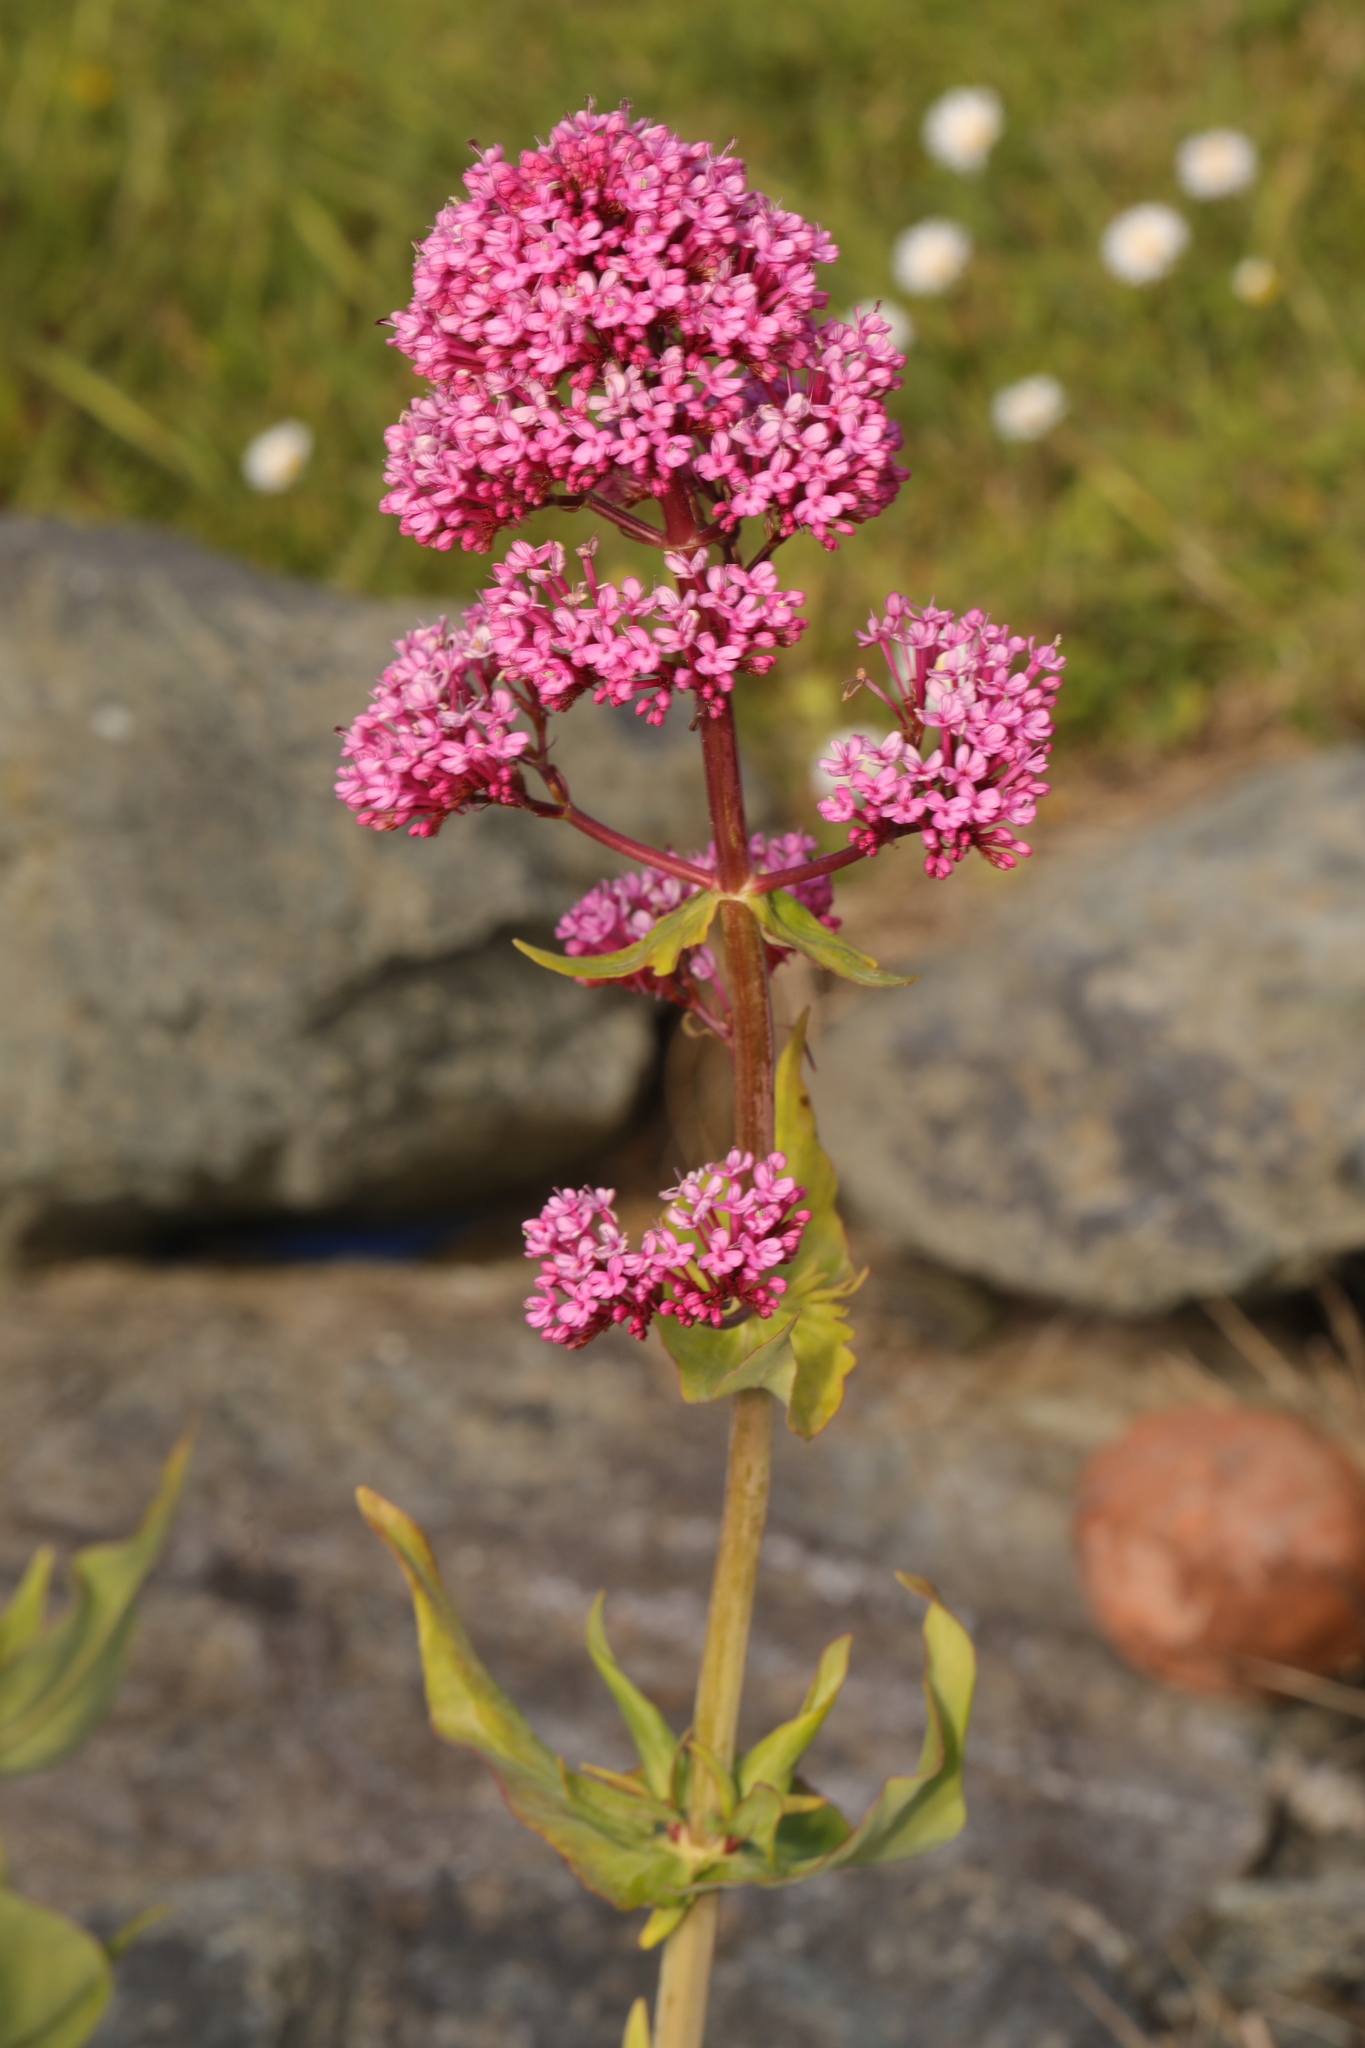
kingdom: Plantae
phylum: Tracheophyta
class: Magnoliopsida
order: Dipsacales
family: Caprifoliaceae
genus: Centranthus
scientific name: Centranthus ruber
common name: Red valerian
